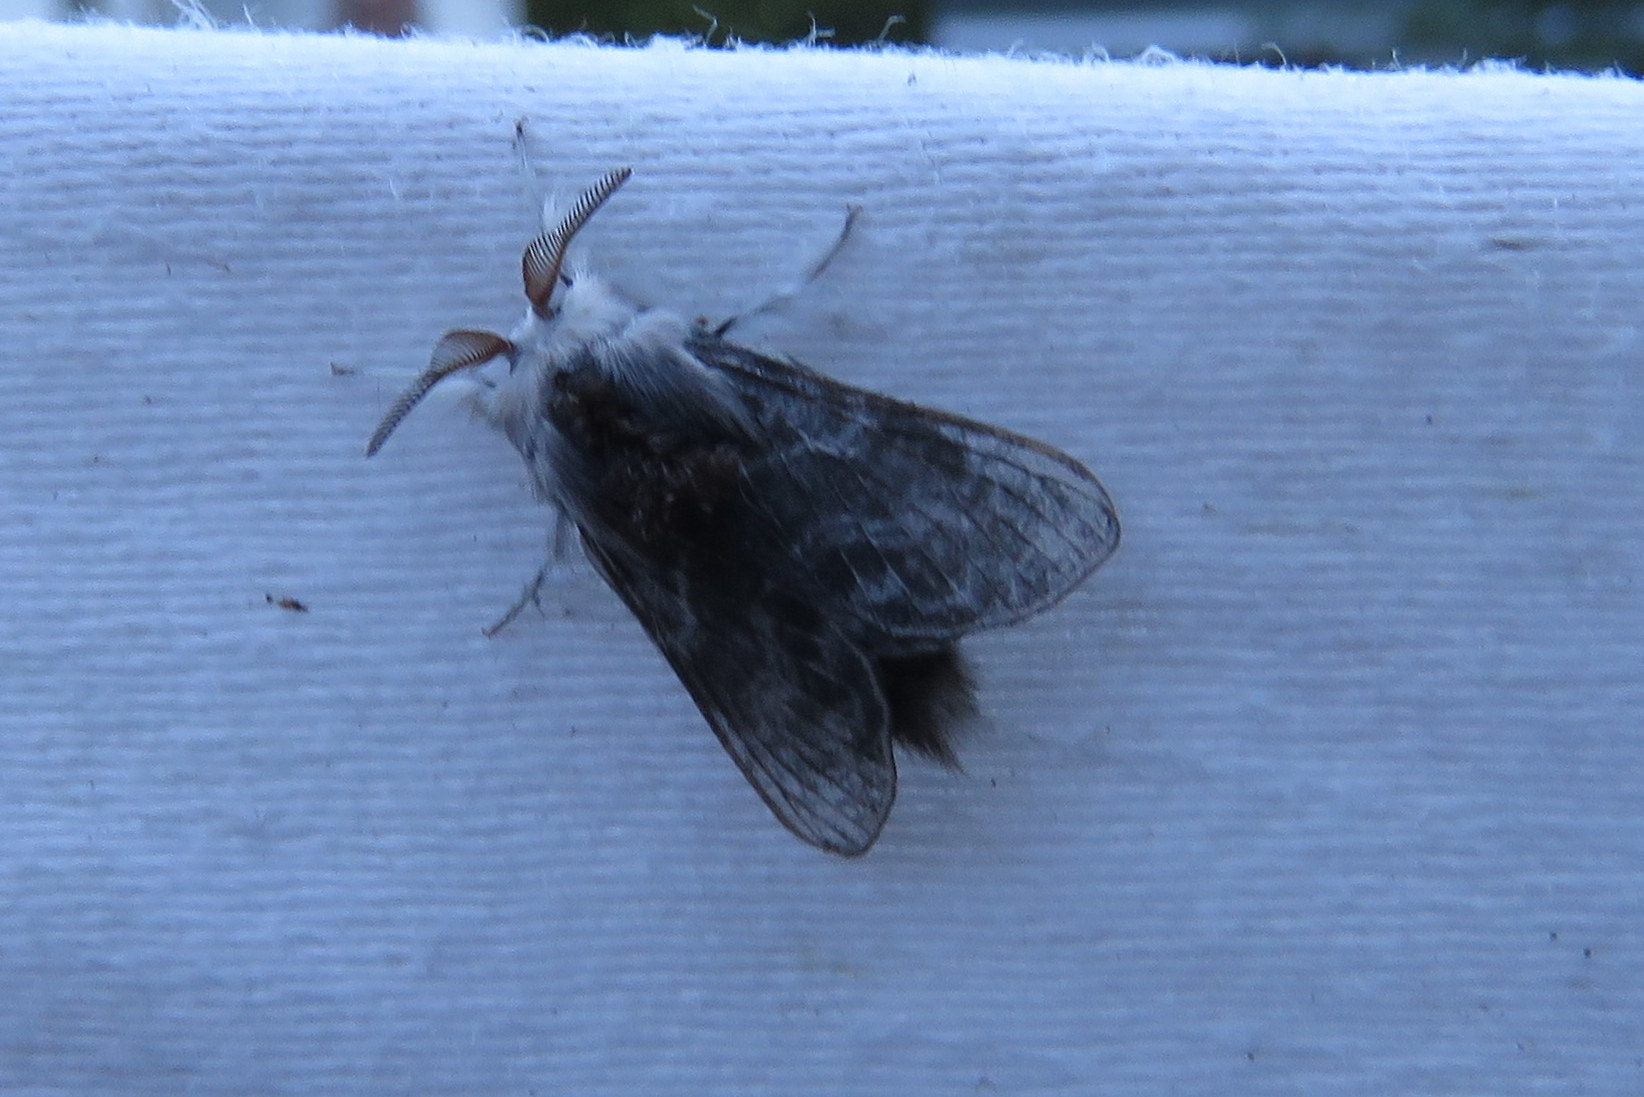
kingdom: Animalia
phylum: Arthropoda
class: Insecta
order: Lepidoptera
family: Lasiocampidae
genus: Tolype
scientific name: Tolype laricis
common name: Larch tolype moth
